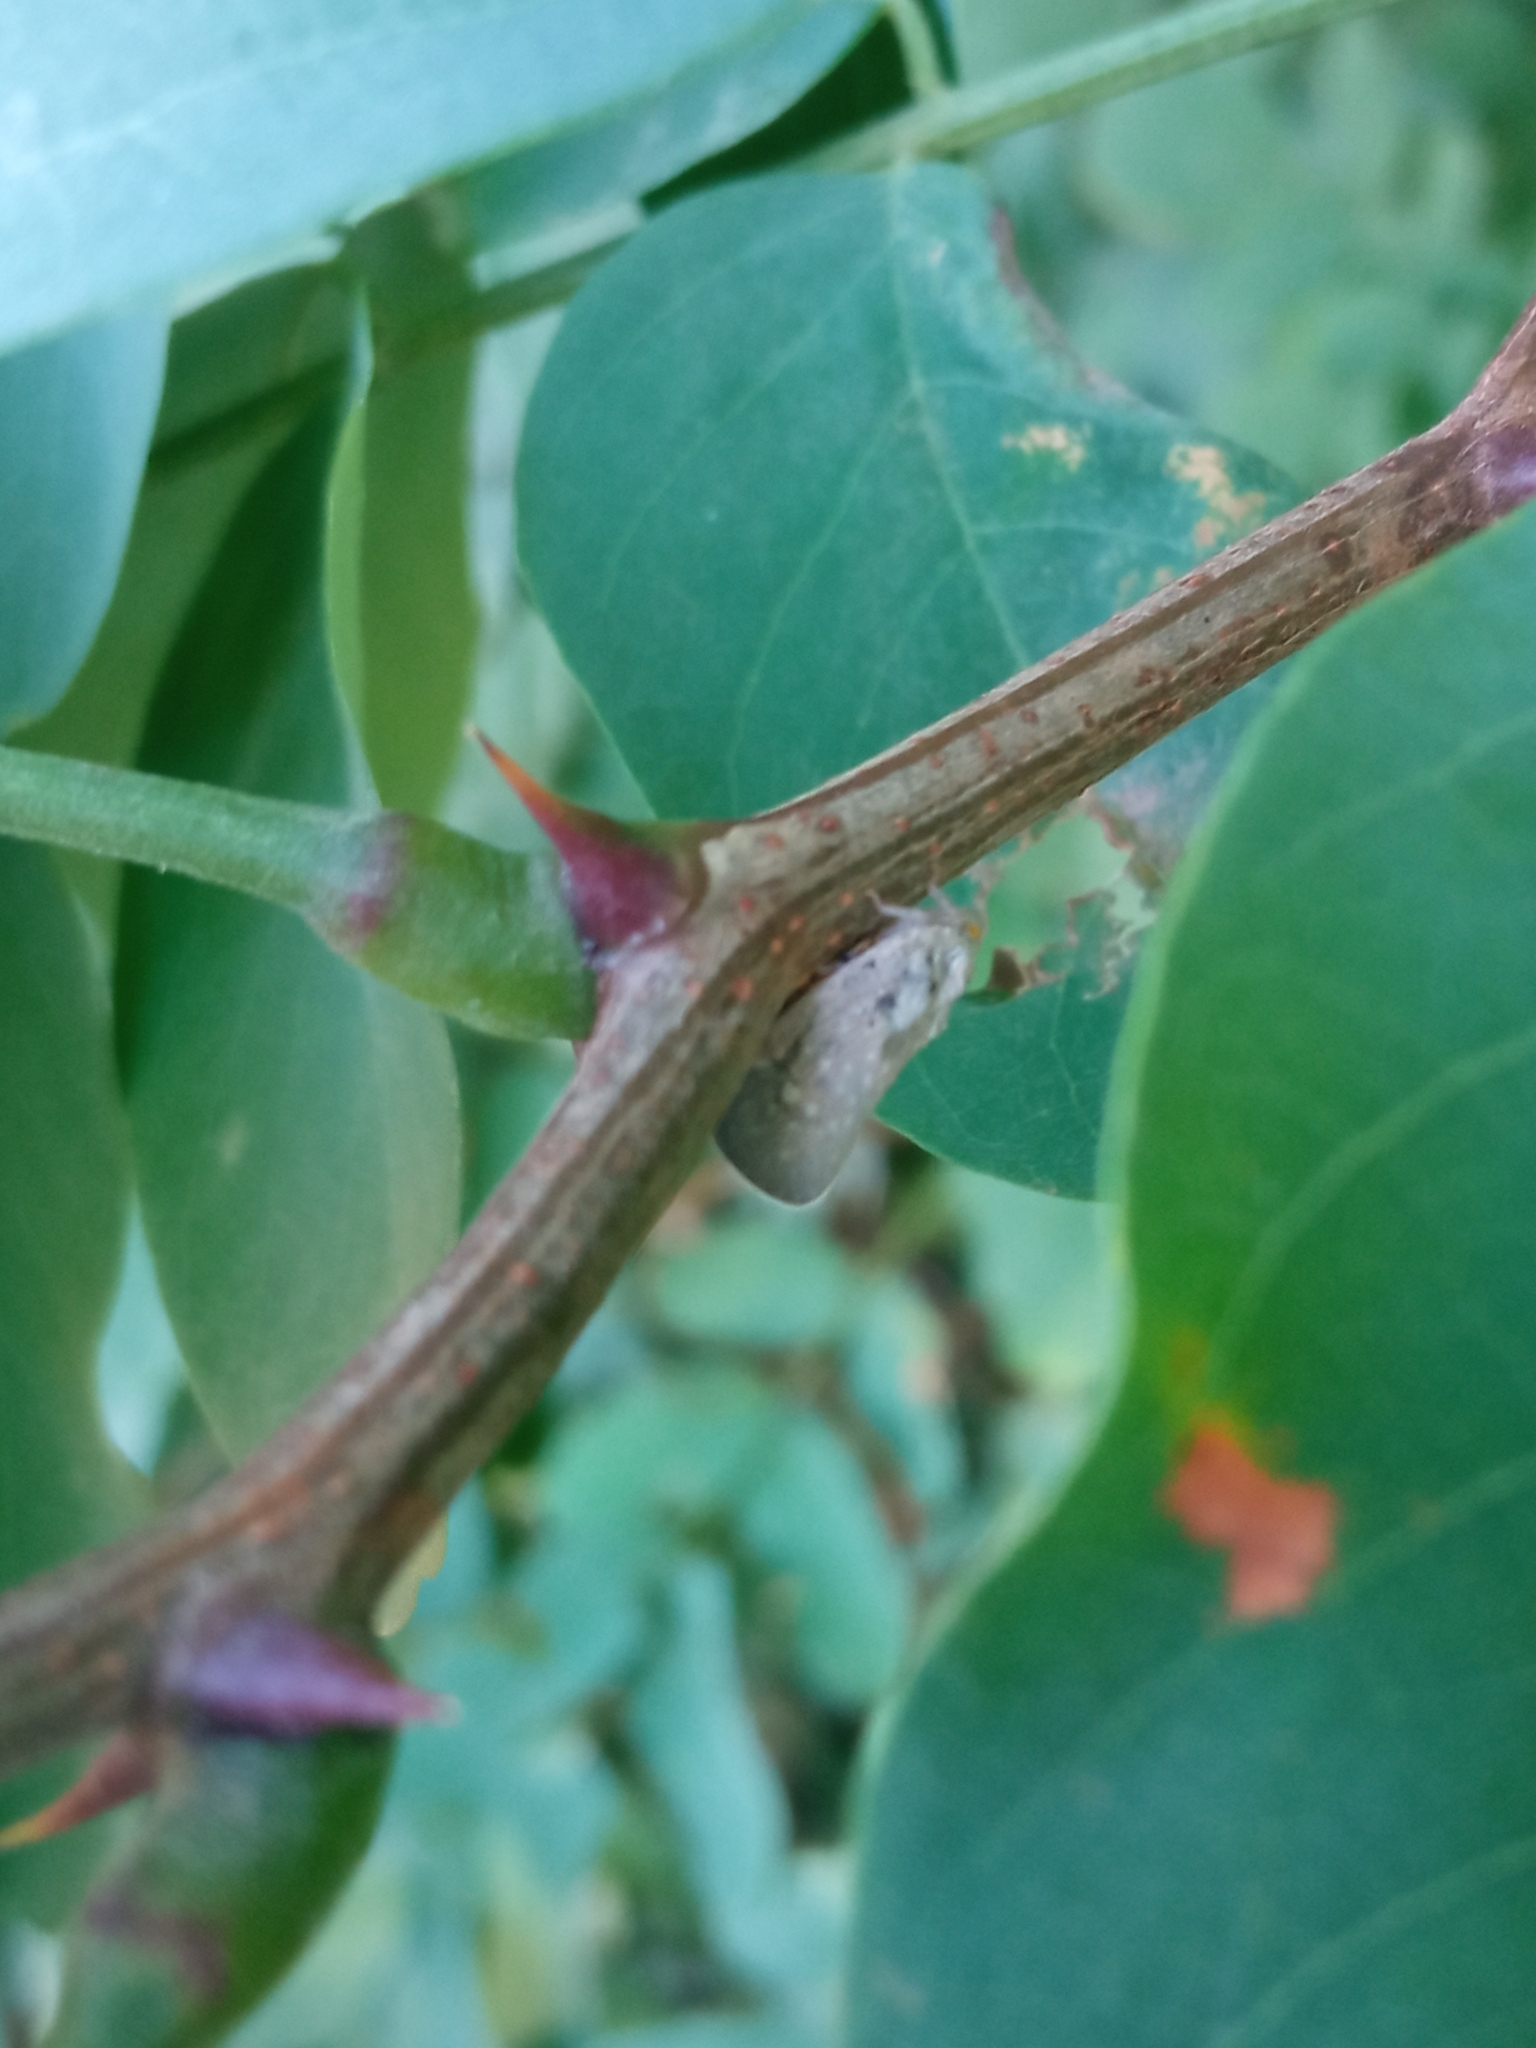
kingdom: Animalia
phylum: Arthropoda
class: Insecta
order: Hemiptera
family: Flatidae
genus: Metcalfa
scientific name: Metcalfa pruinosa
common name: Citrus flatid planthopper
